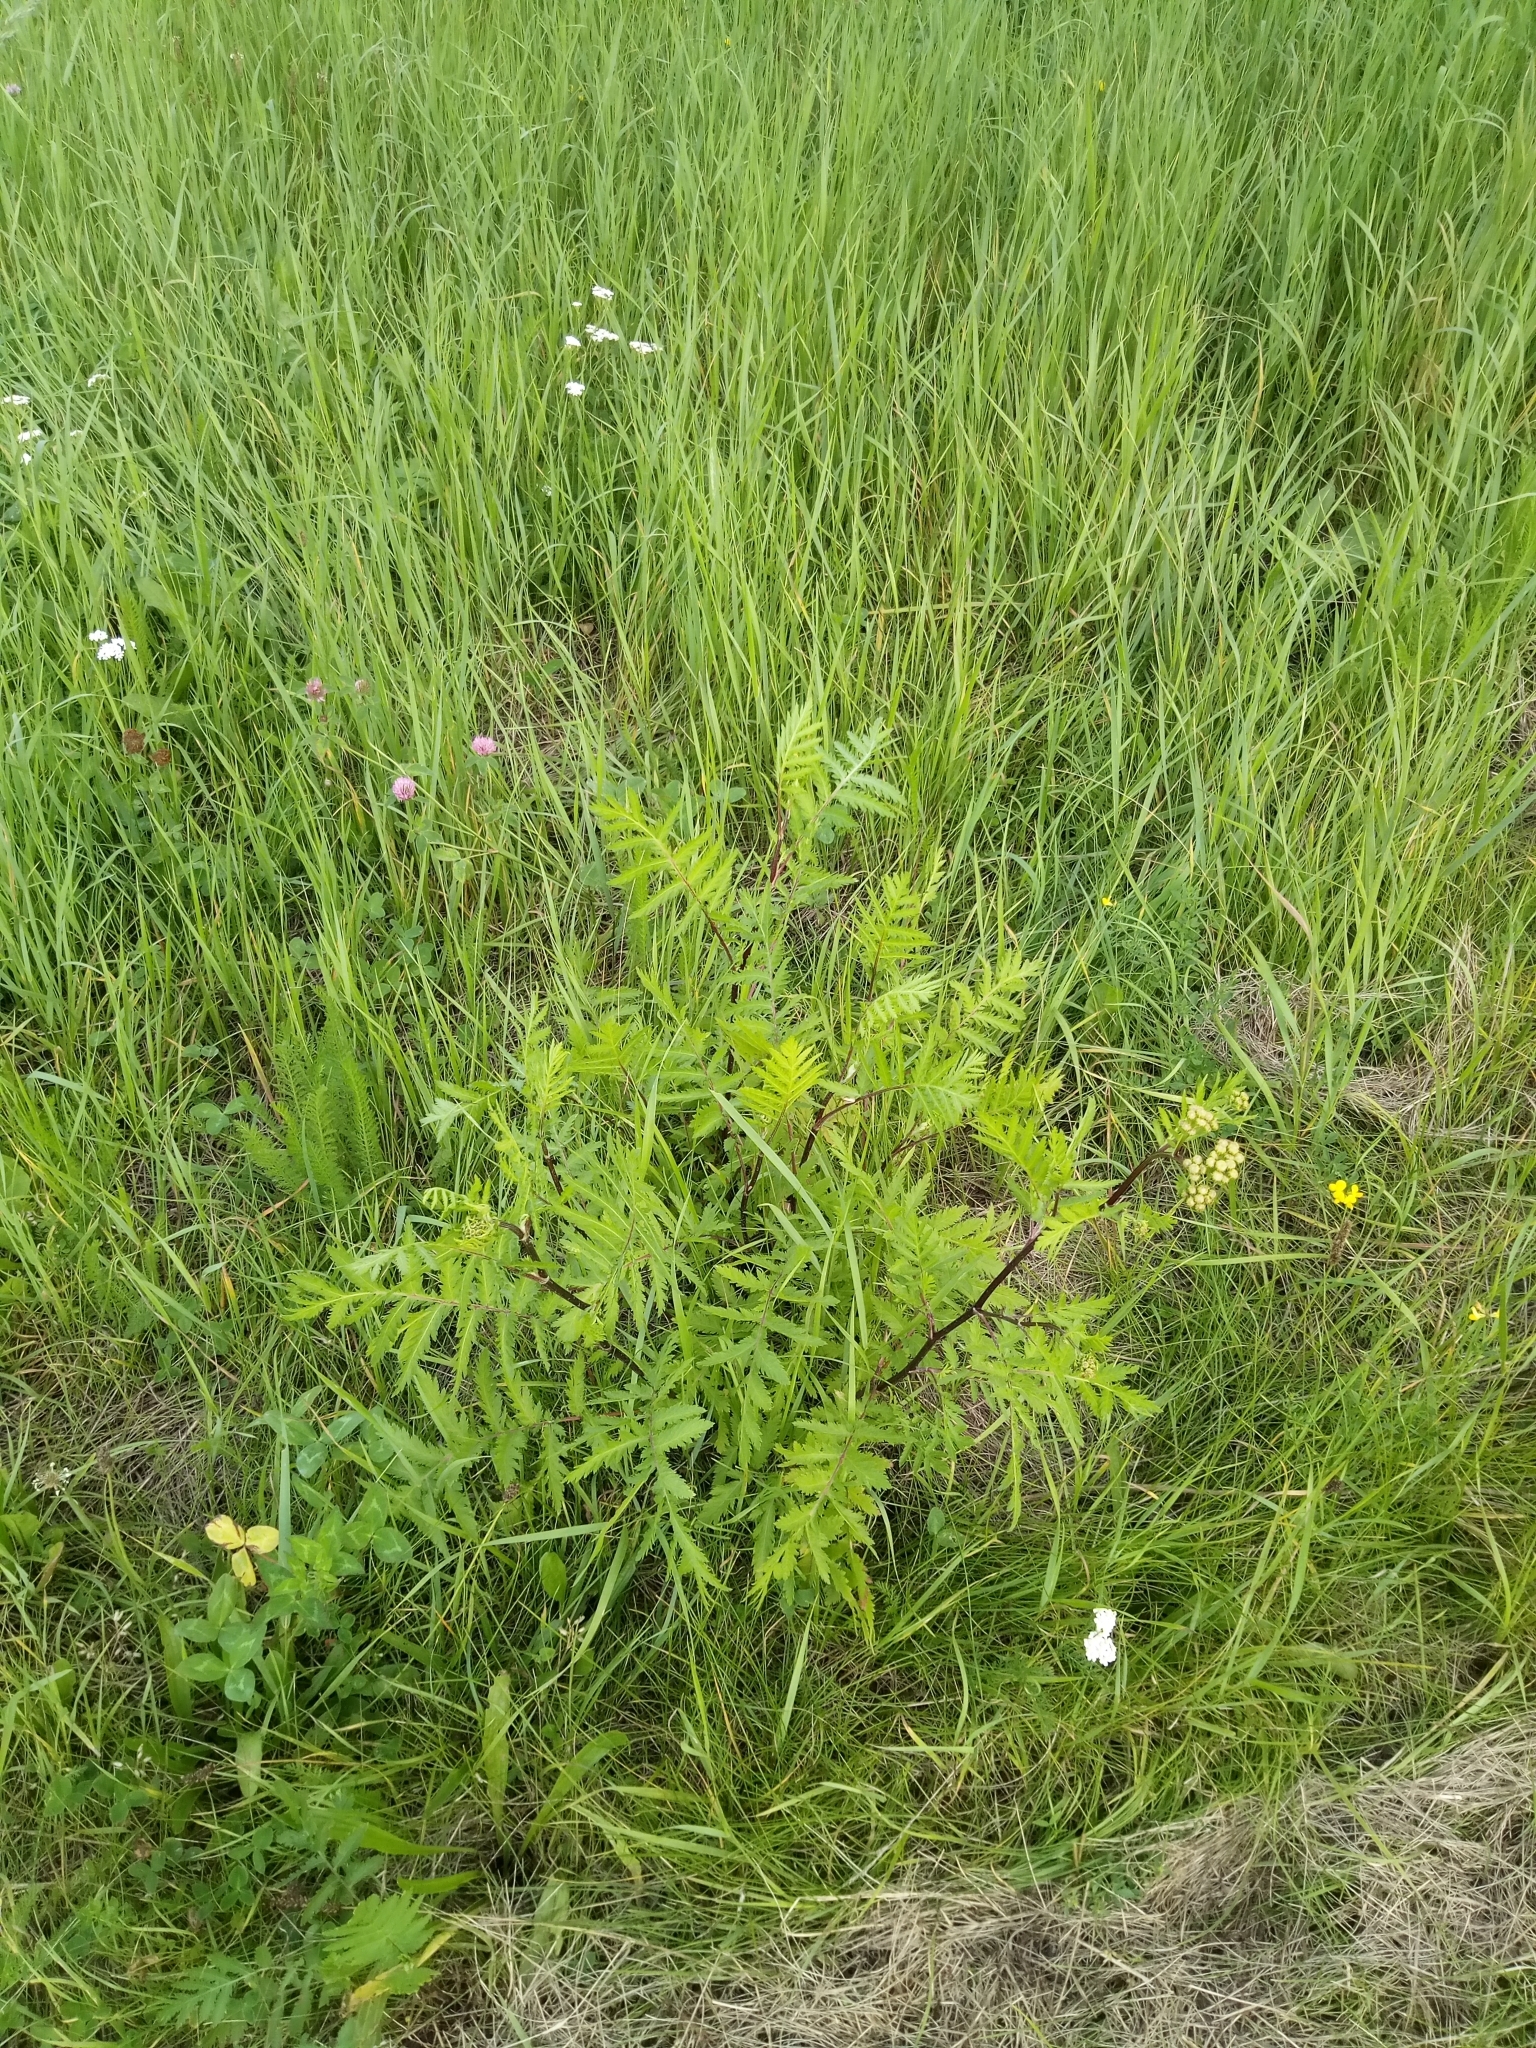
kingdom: Plantae
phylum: Tracheophyta
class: Magnoliopsida
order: Asterales
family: Asteraceae
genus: Tanacetum
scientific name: Tanacetum vulgare
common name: Common tansy
